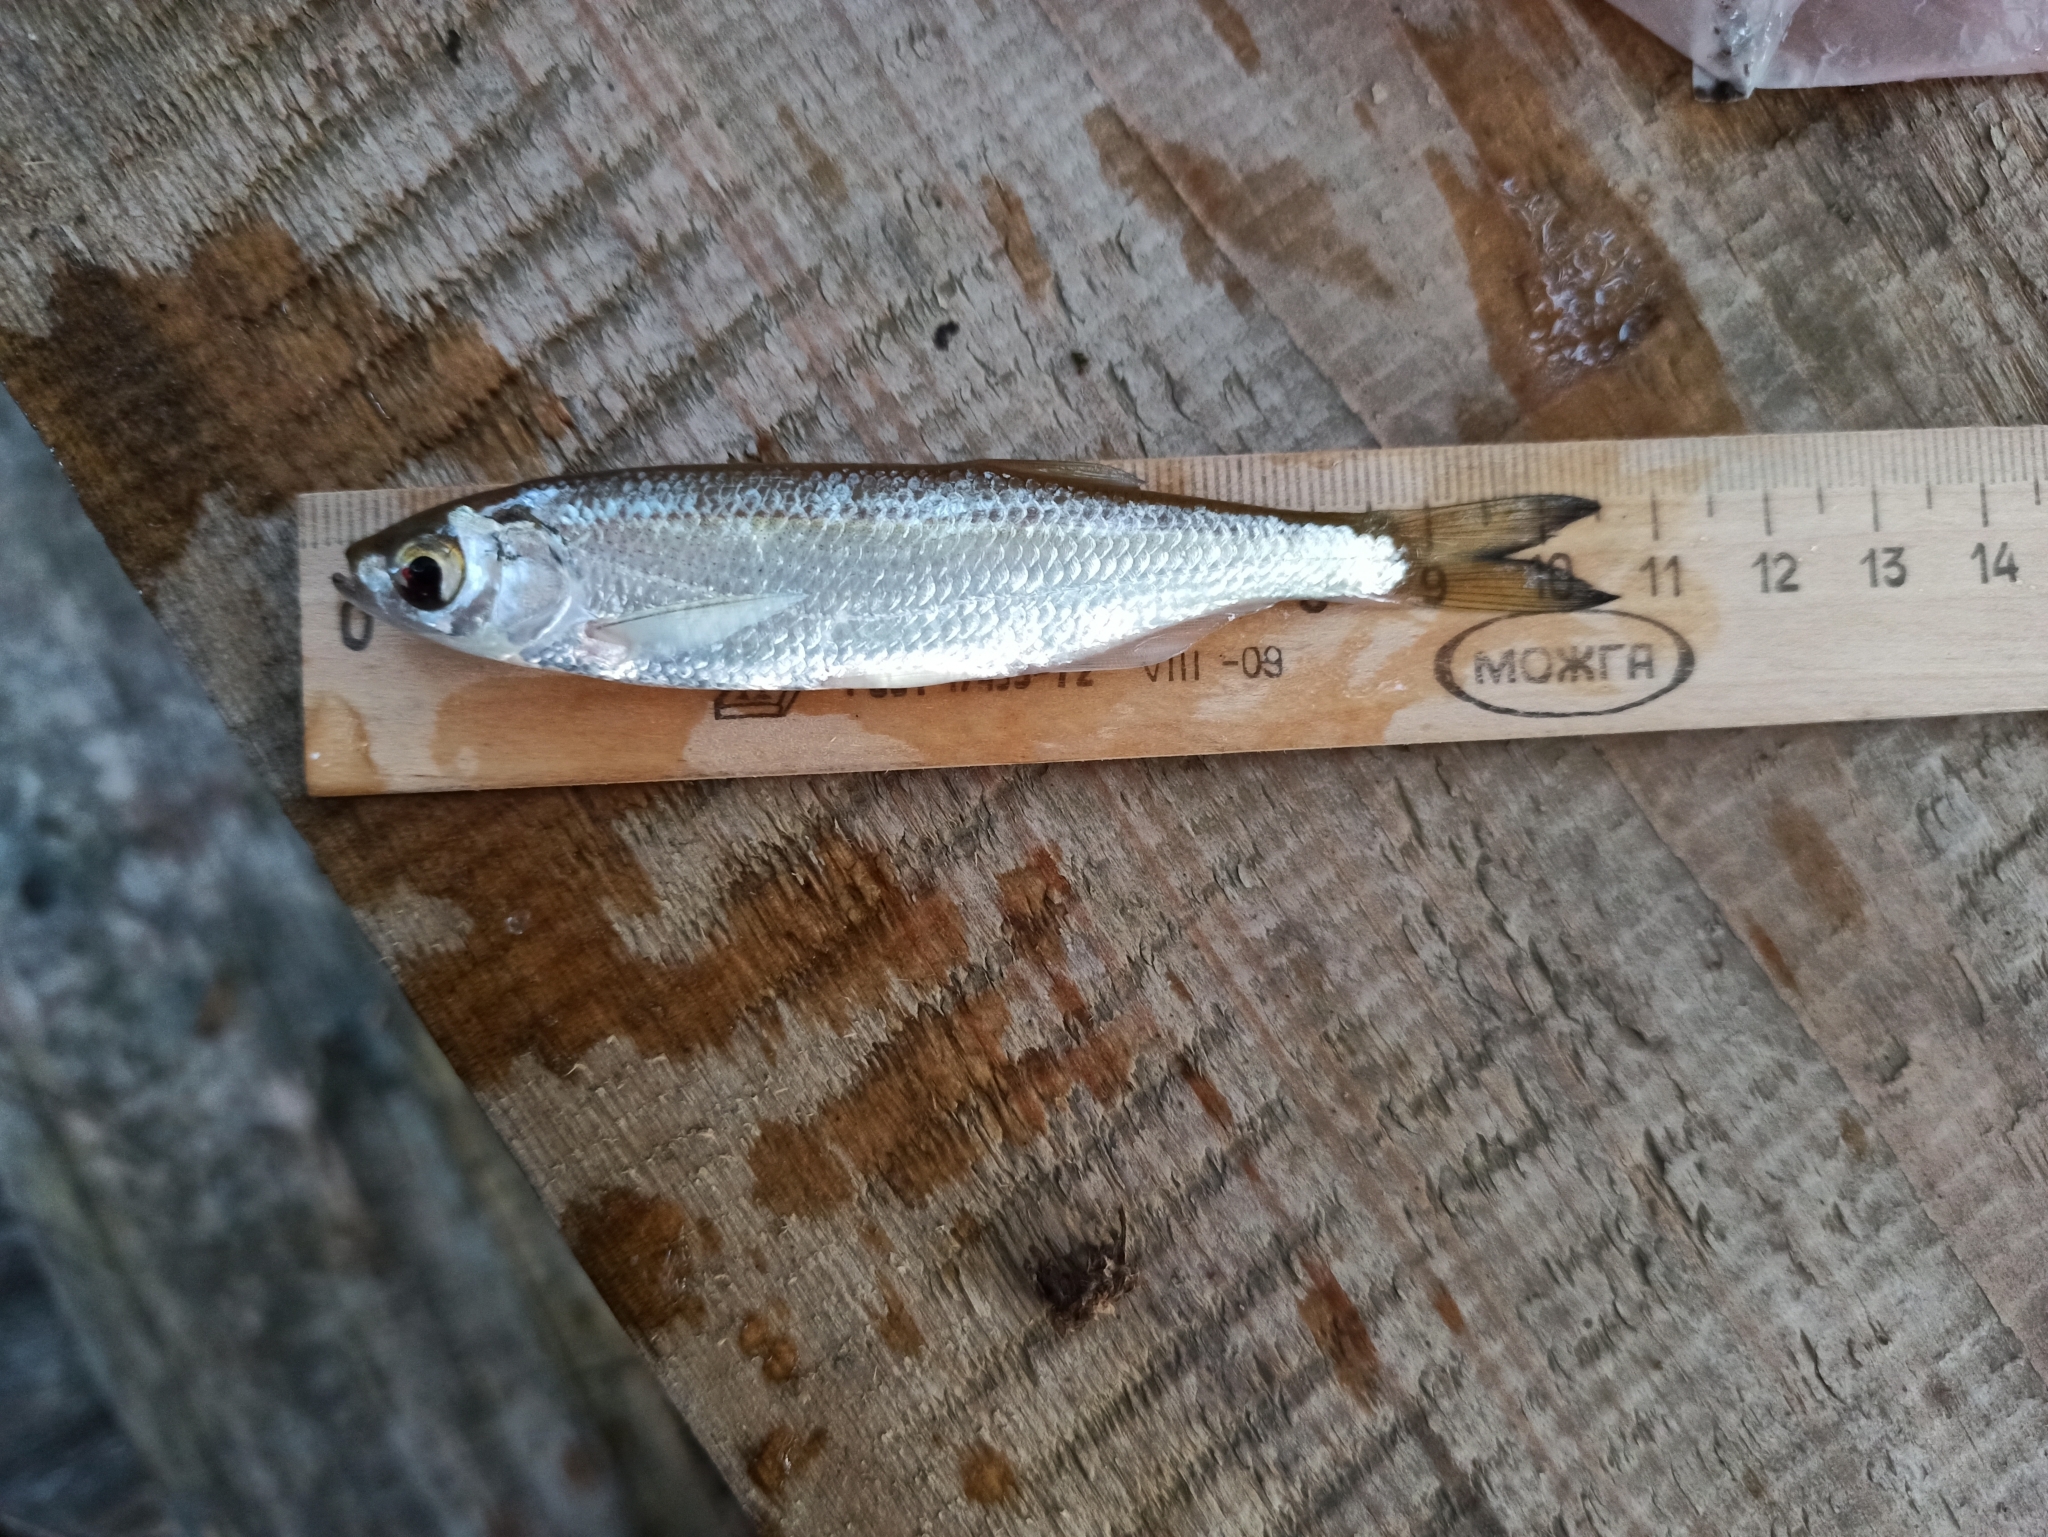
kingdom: Animalia
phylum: Chordata
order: Cypriniformes
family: Cyprinidae
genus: Alburnus
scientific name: Alburnus alburnus
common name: Bleak
